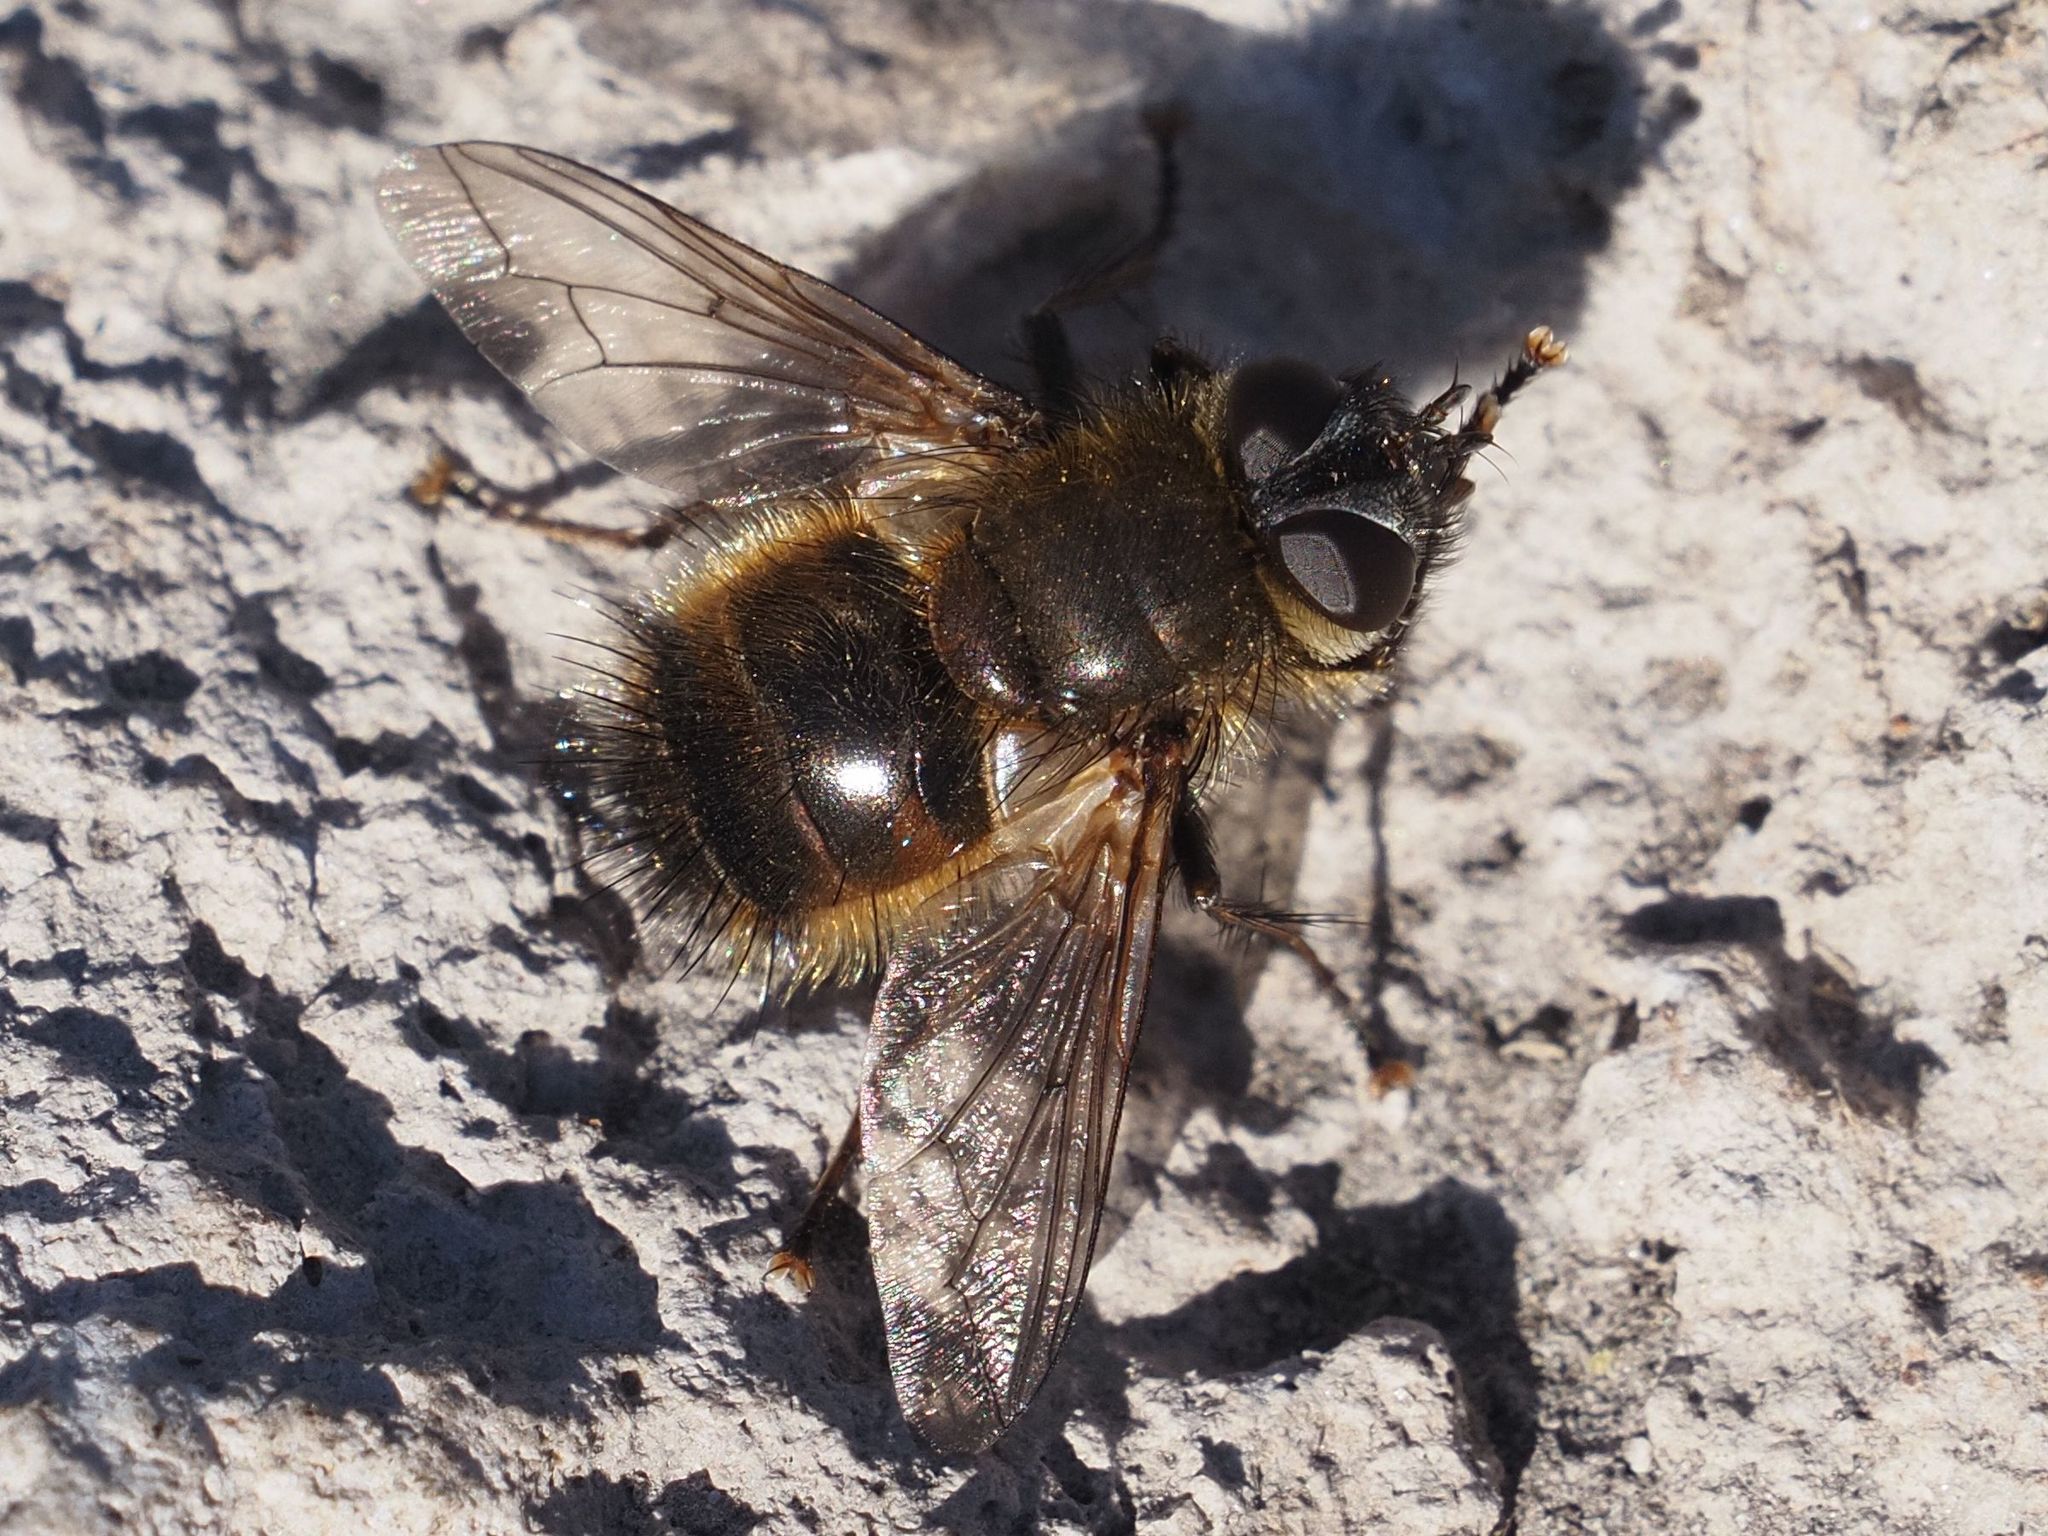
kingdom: Animalia
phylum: Arthropoda
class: Insecta
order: Diptera
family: Tachinidae
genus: Tachina
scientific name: Tachina ursina
